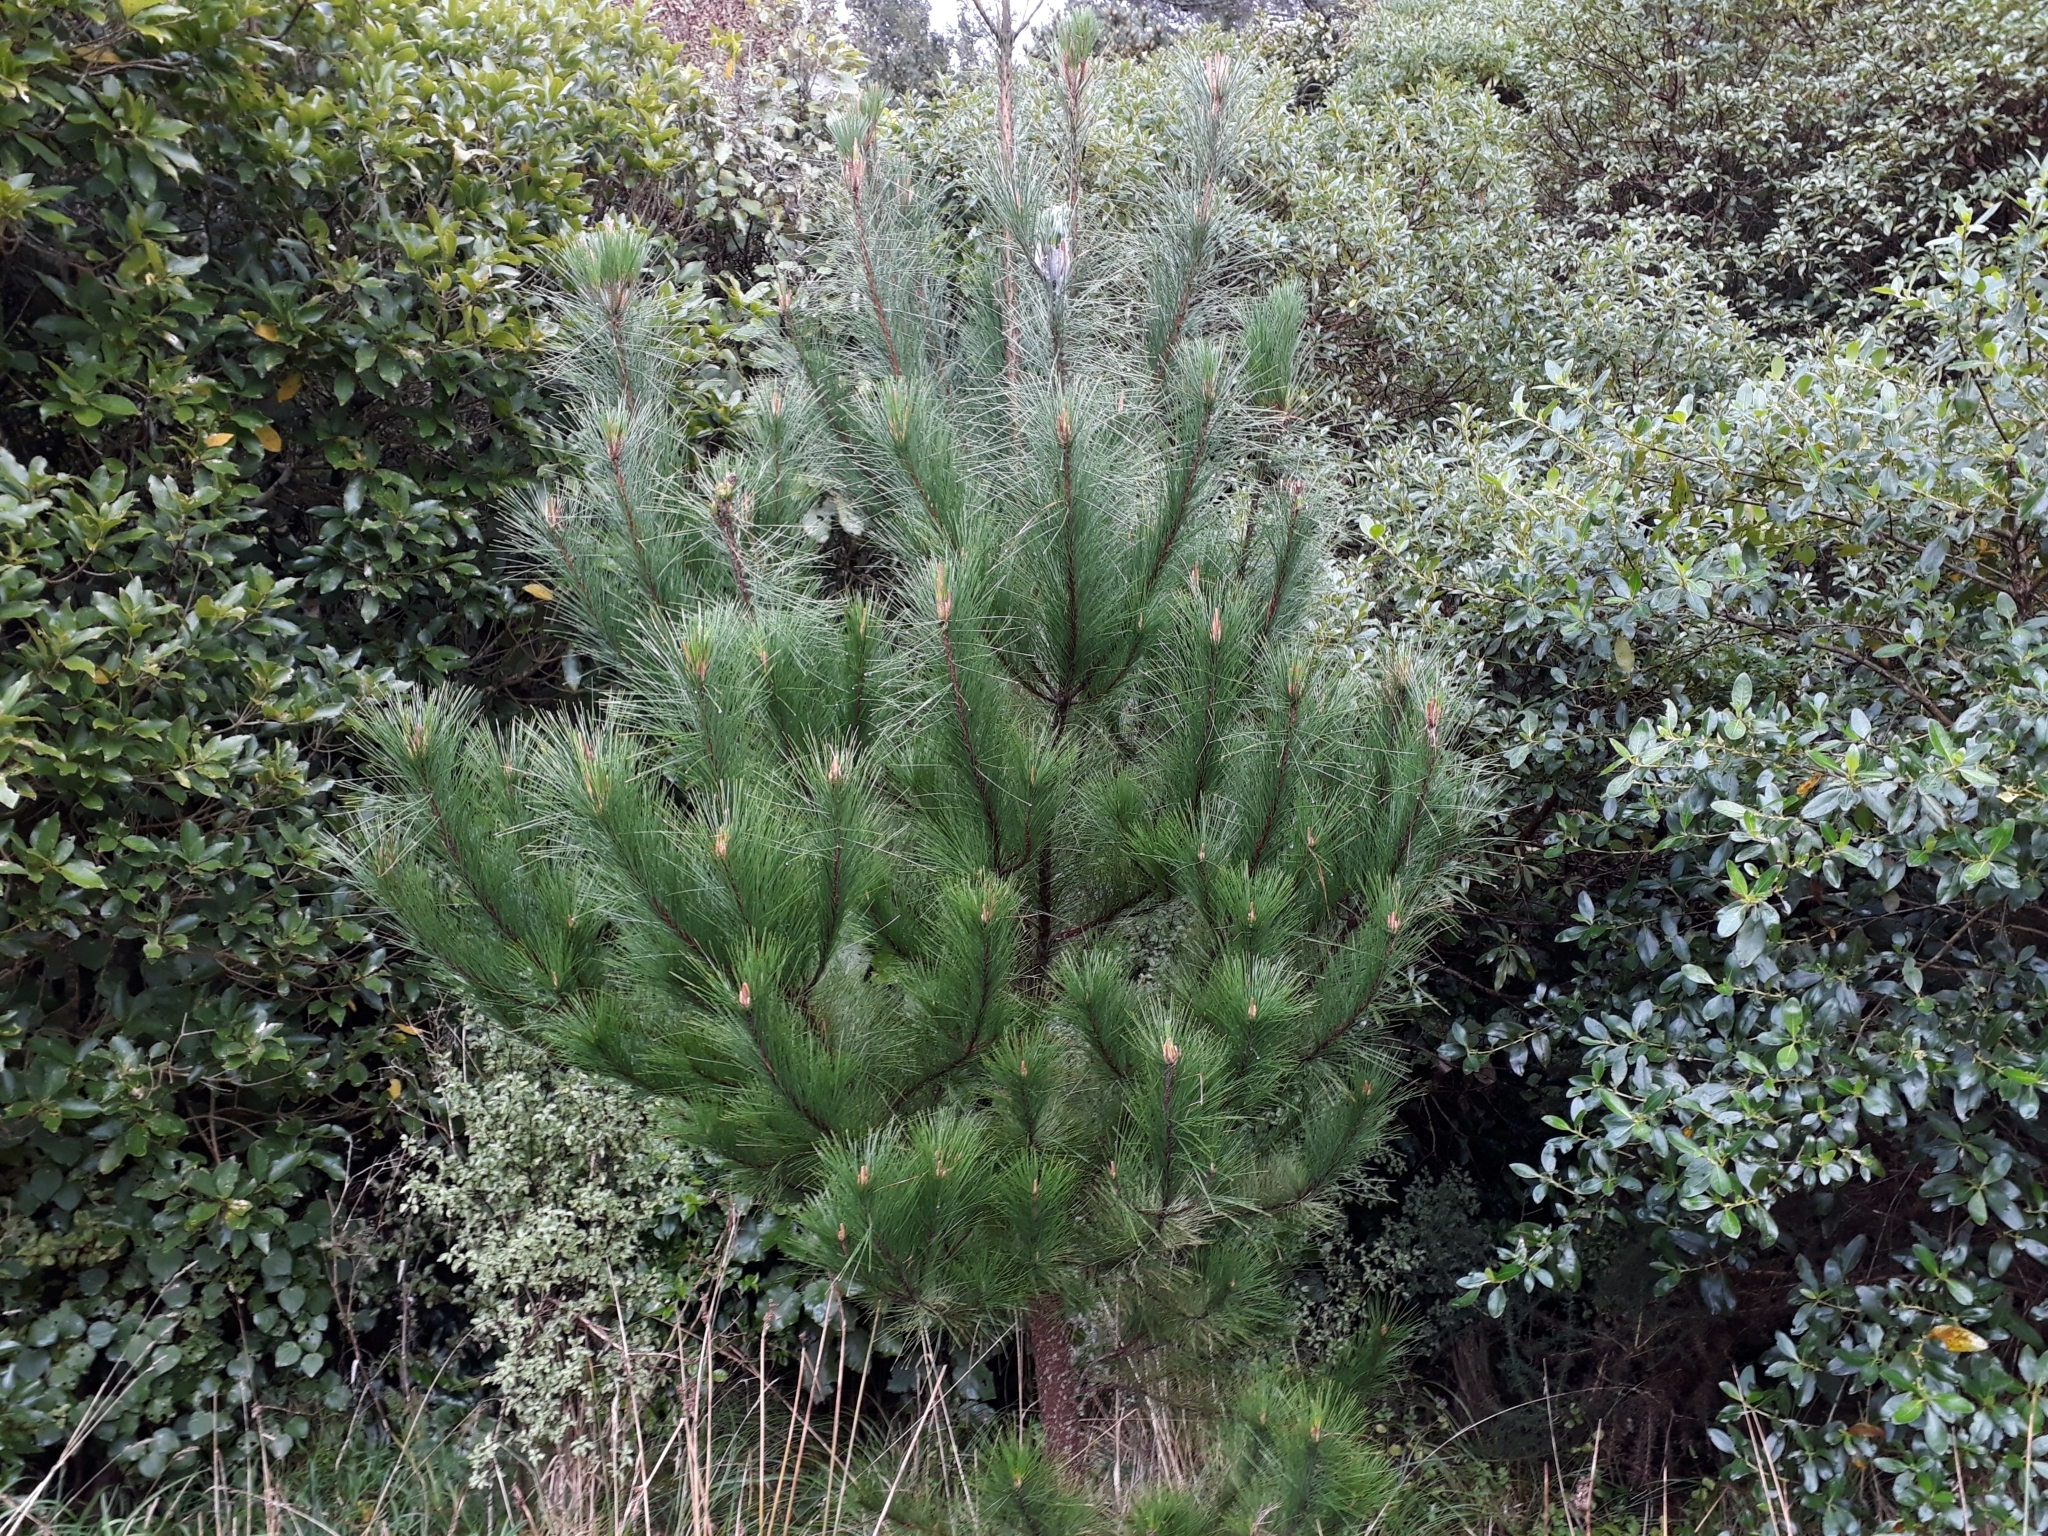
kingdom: Plantae
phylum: Tracheophyta
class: Pinopsida
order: Pinales
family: Pinaceae
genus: Pinus
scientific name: Pinus radiata
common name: Monterey pine
